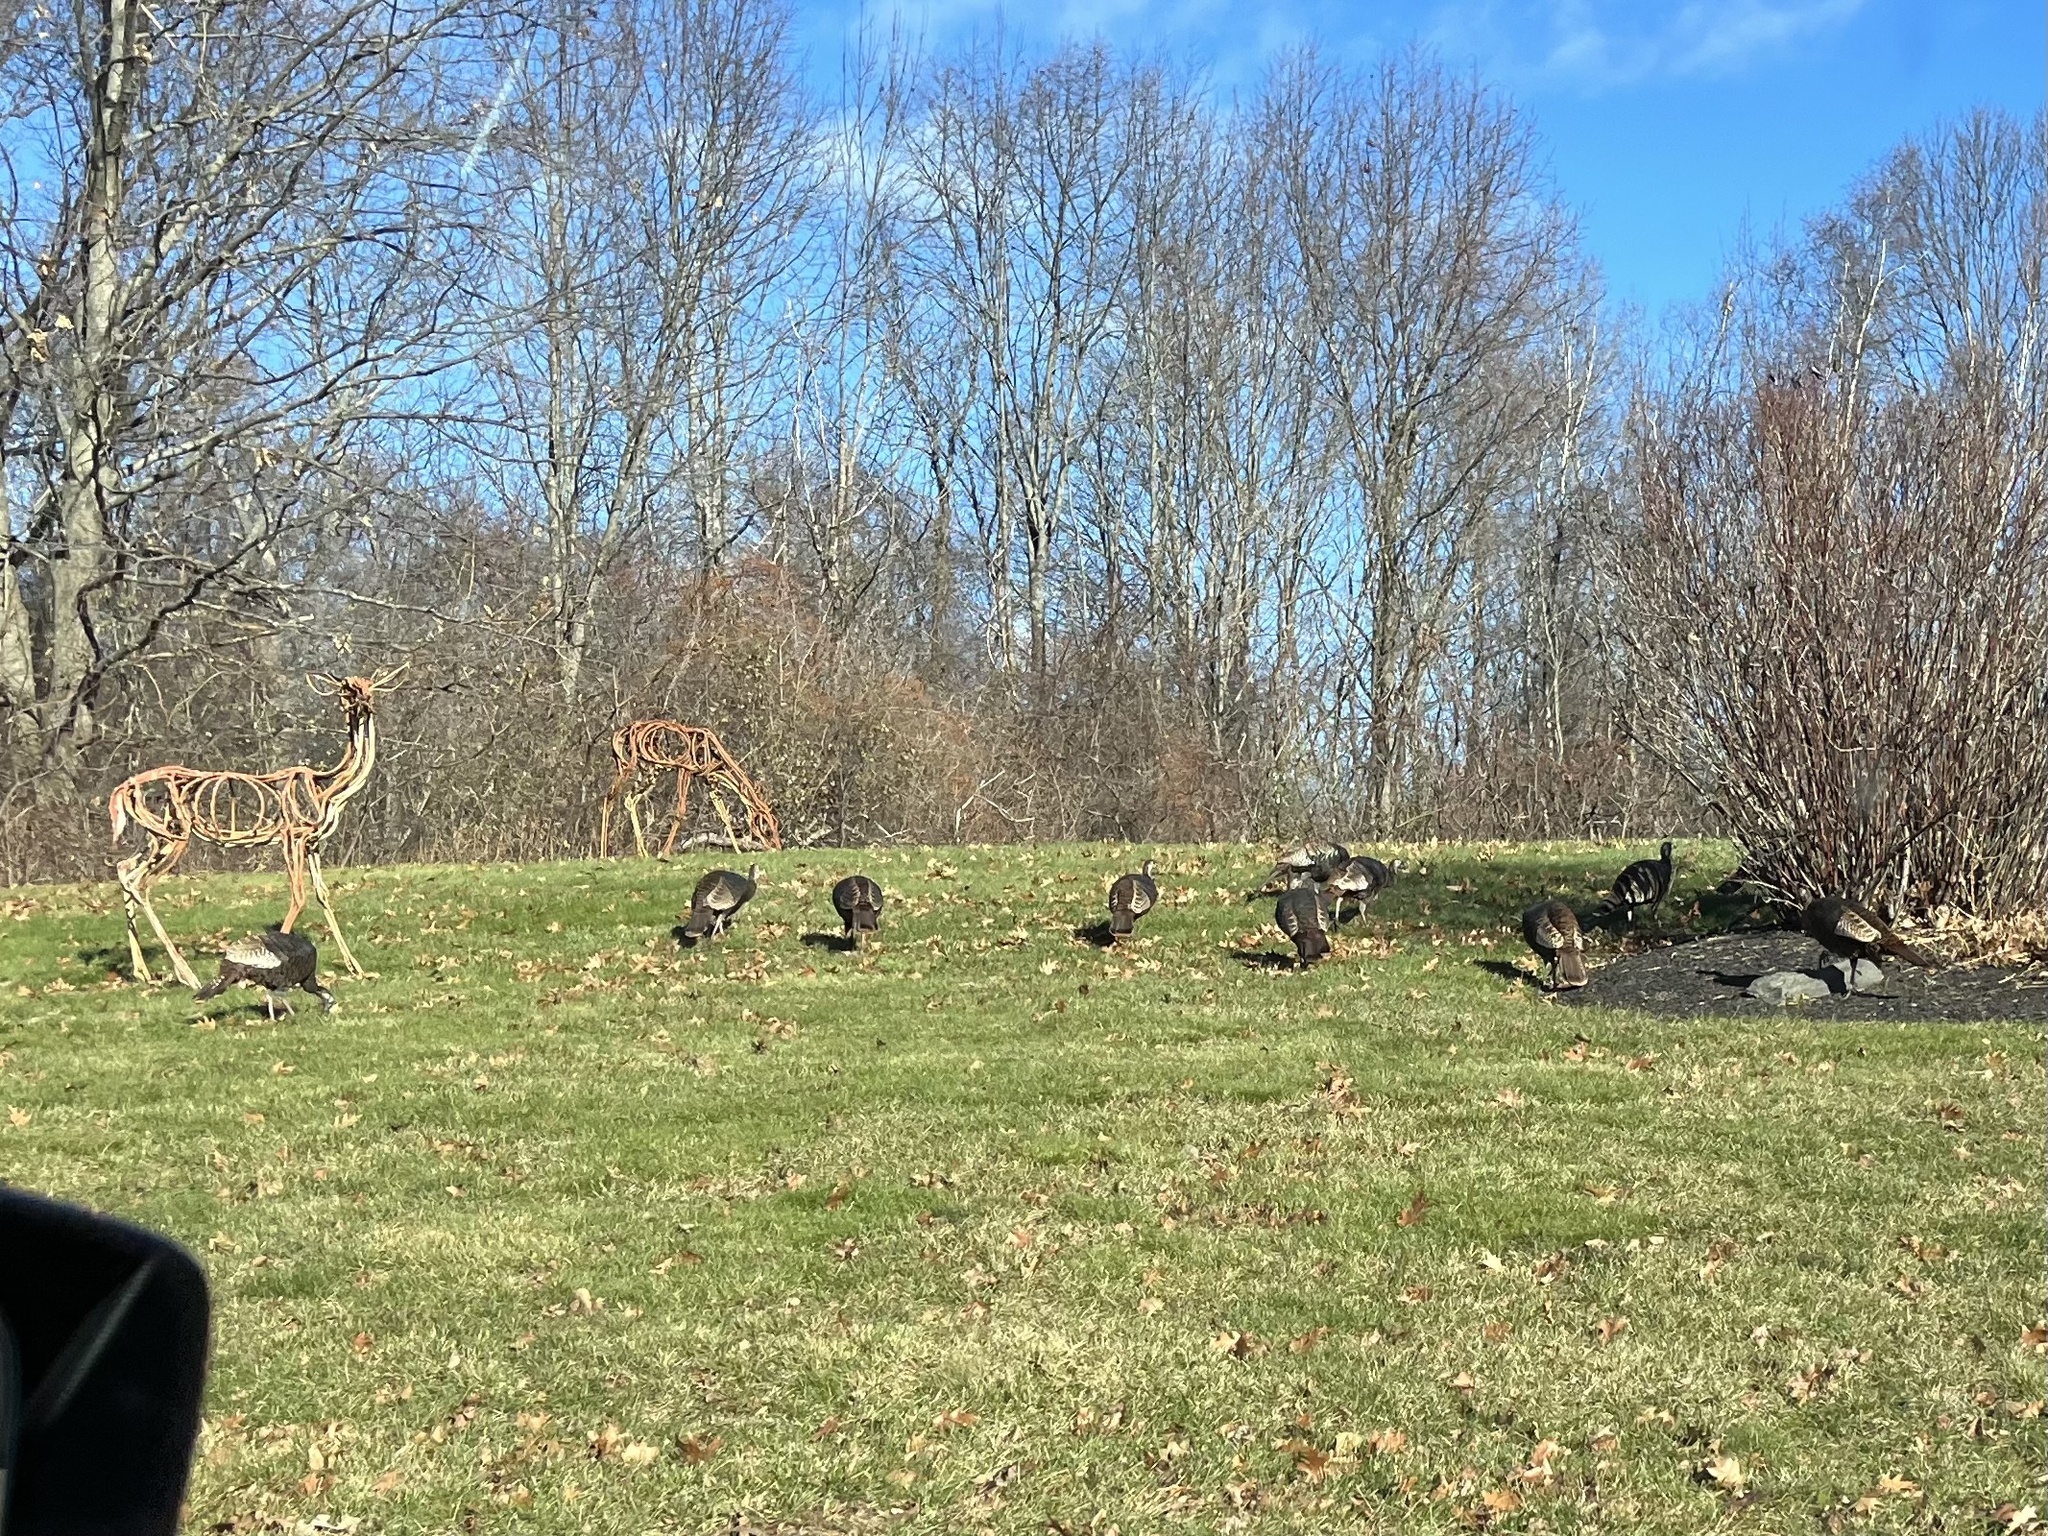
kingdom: Animalia
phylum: Chordata
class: Aves
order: Galliformes
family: Phasianidae
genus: Meleagris
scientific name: Meleagris gallopavo
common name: Wild turkey
